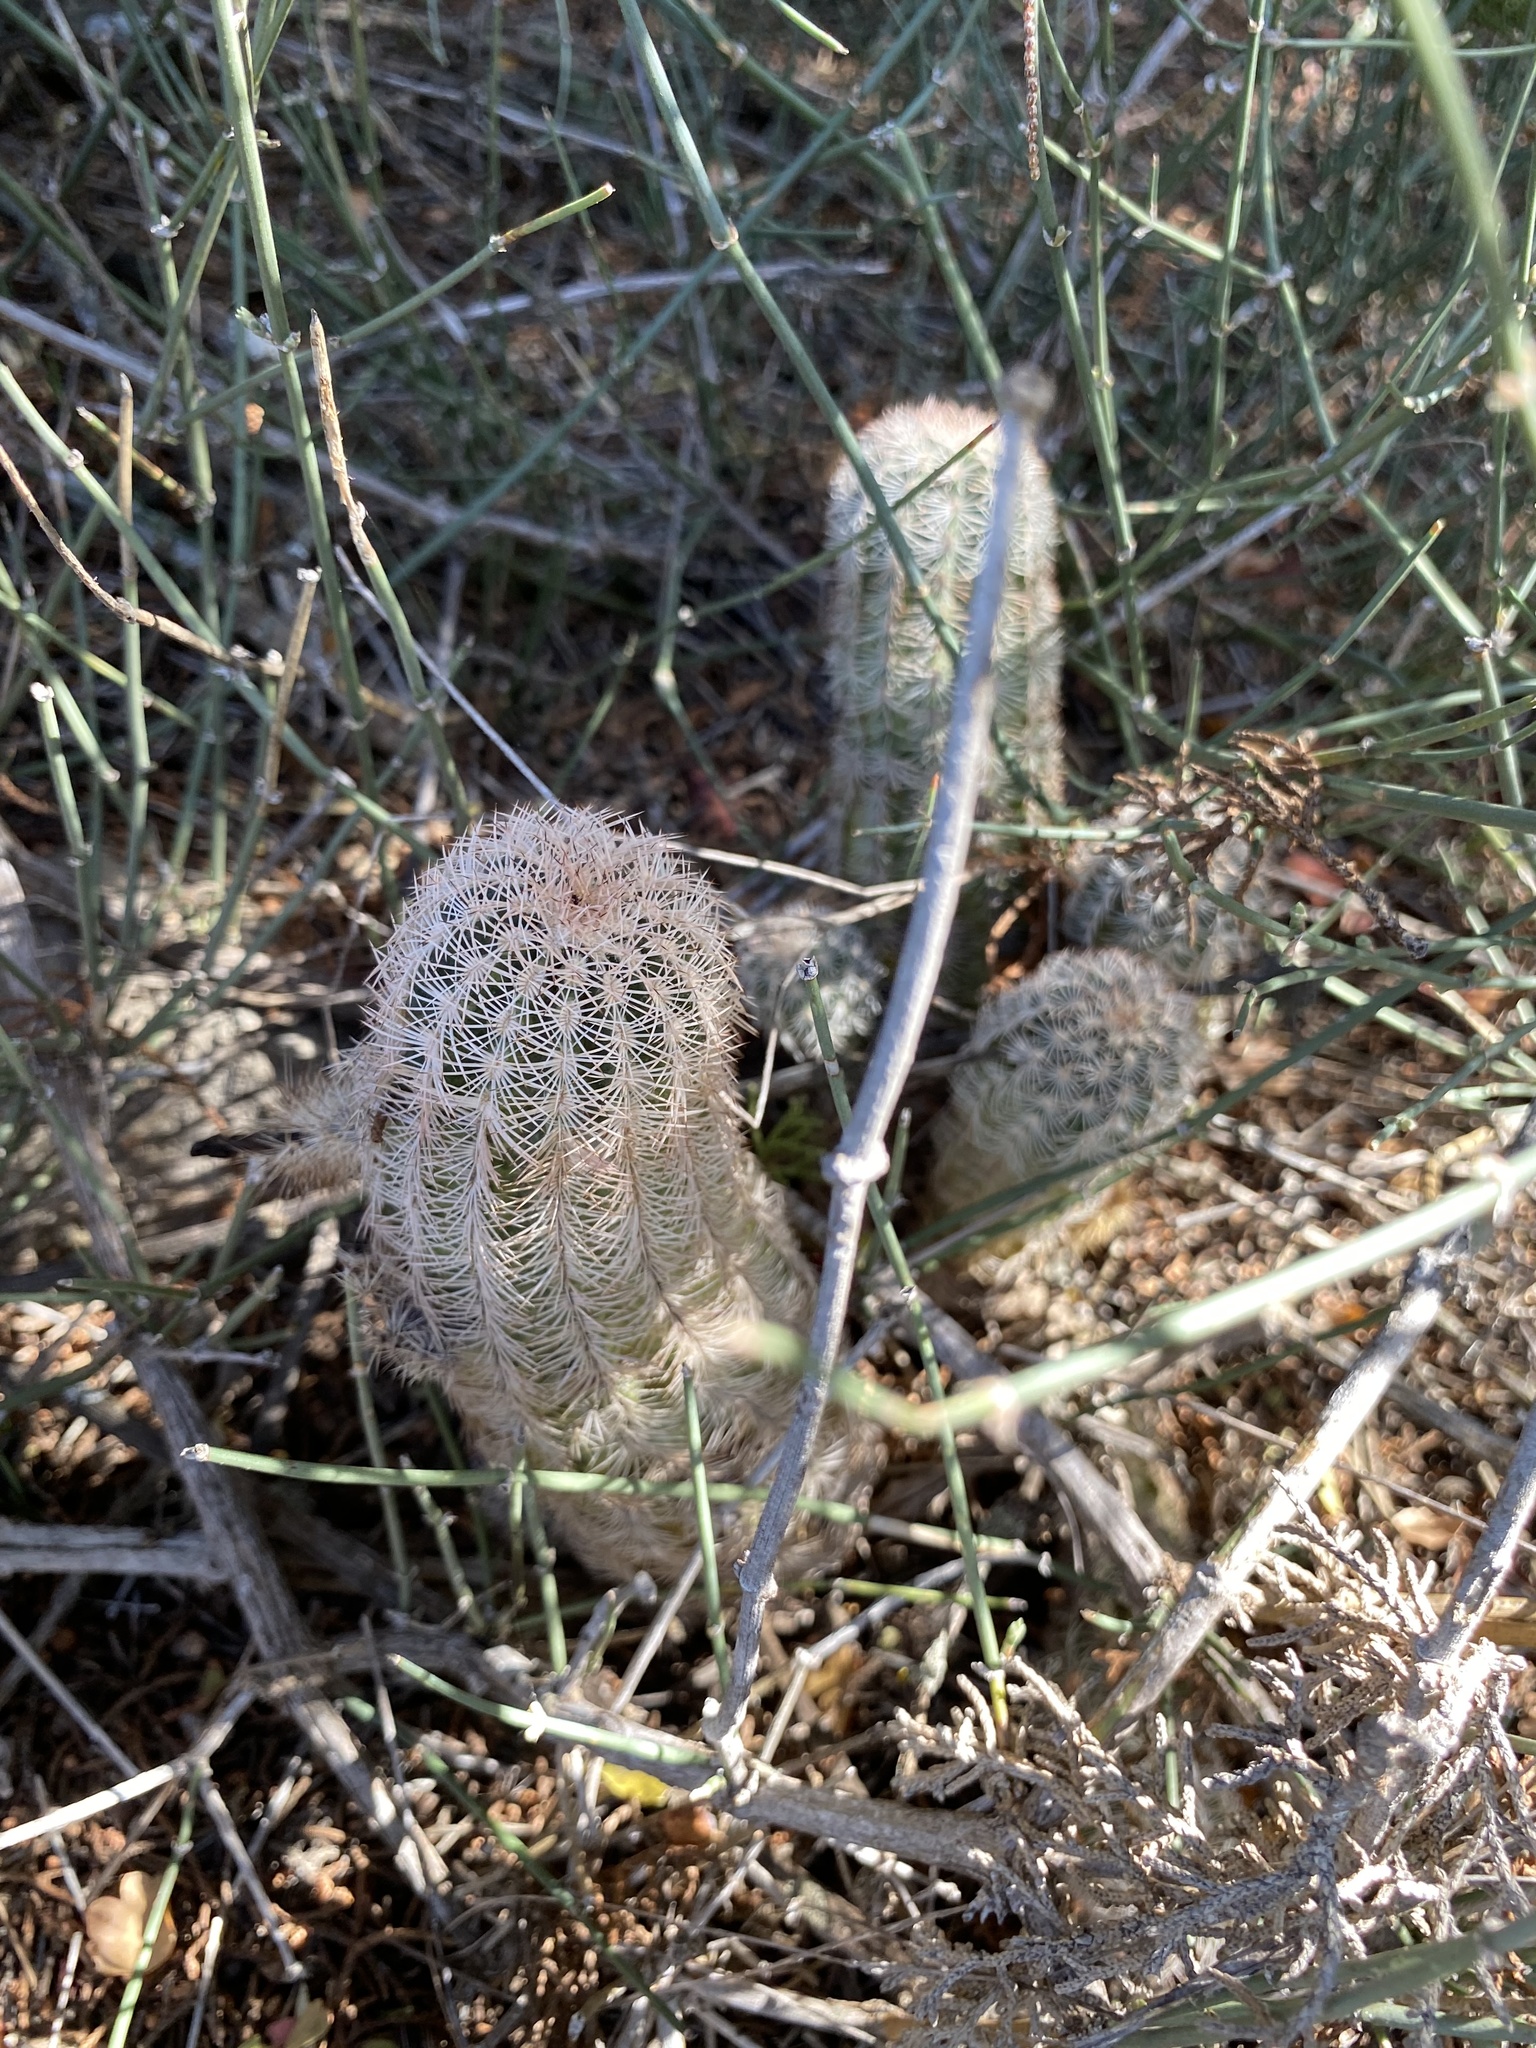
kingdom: Plantae
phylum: Tracheophyta
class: Magnoliopsida
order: Caryophyllales
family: Cactaceae
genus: Echinocereus
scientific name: Echinocereus reichenbachii
